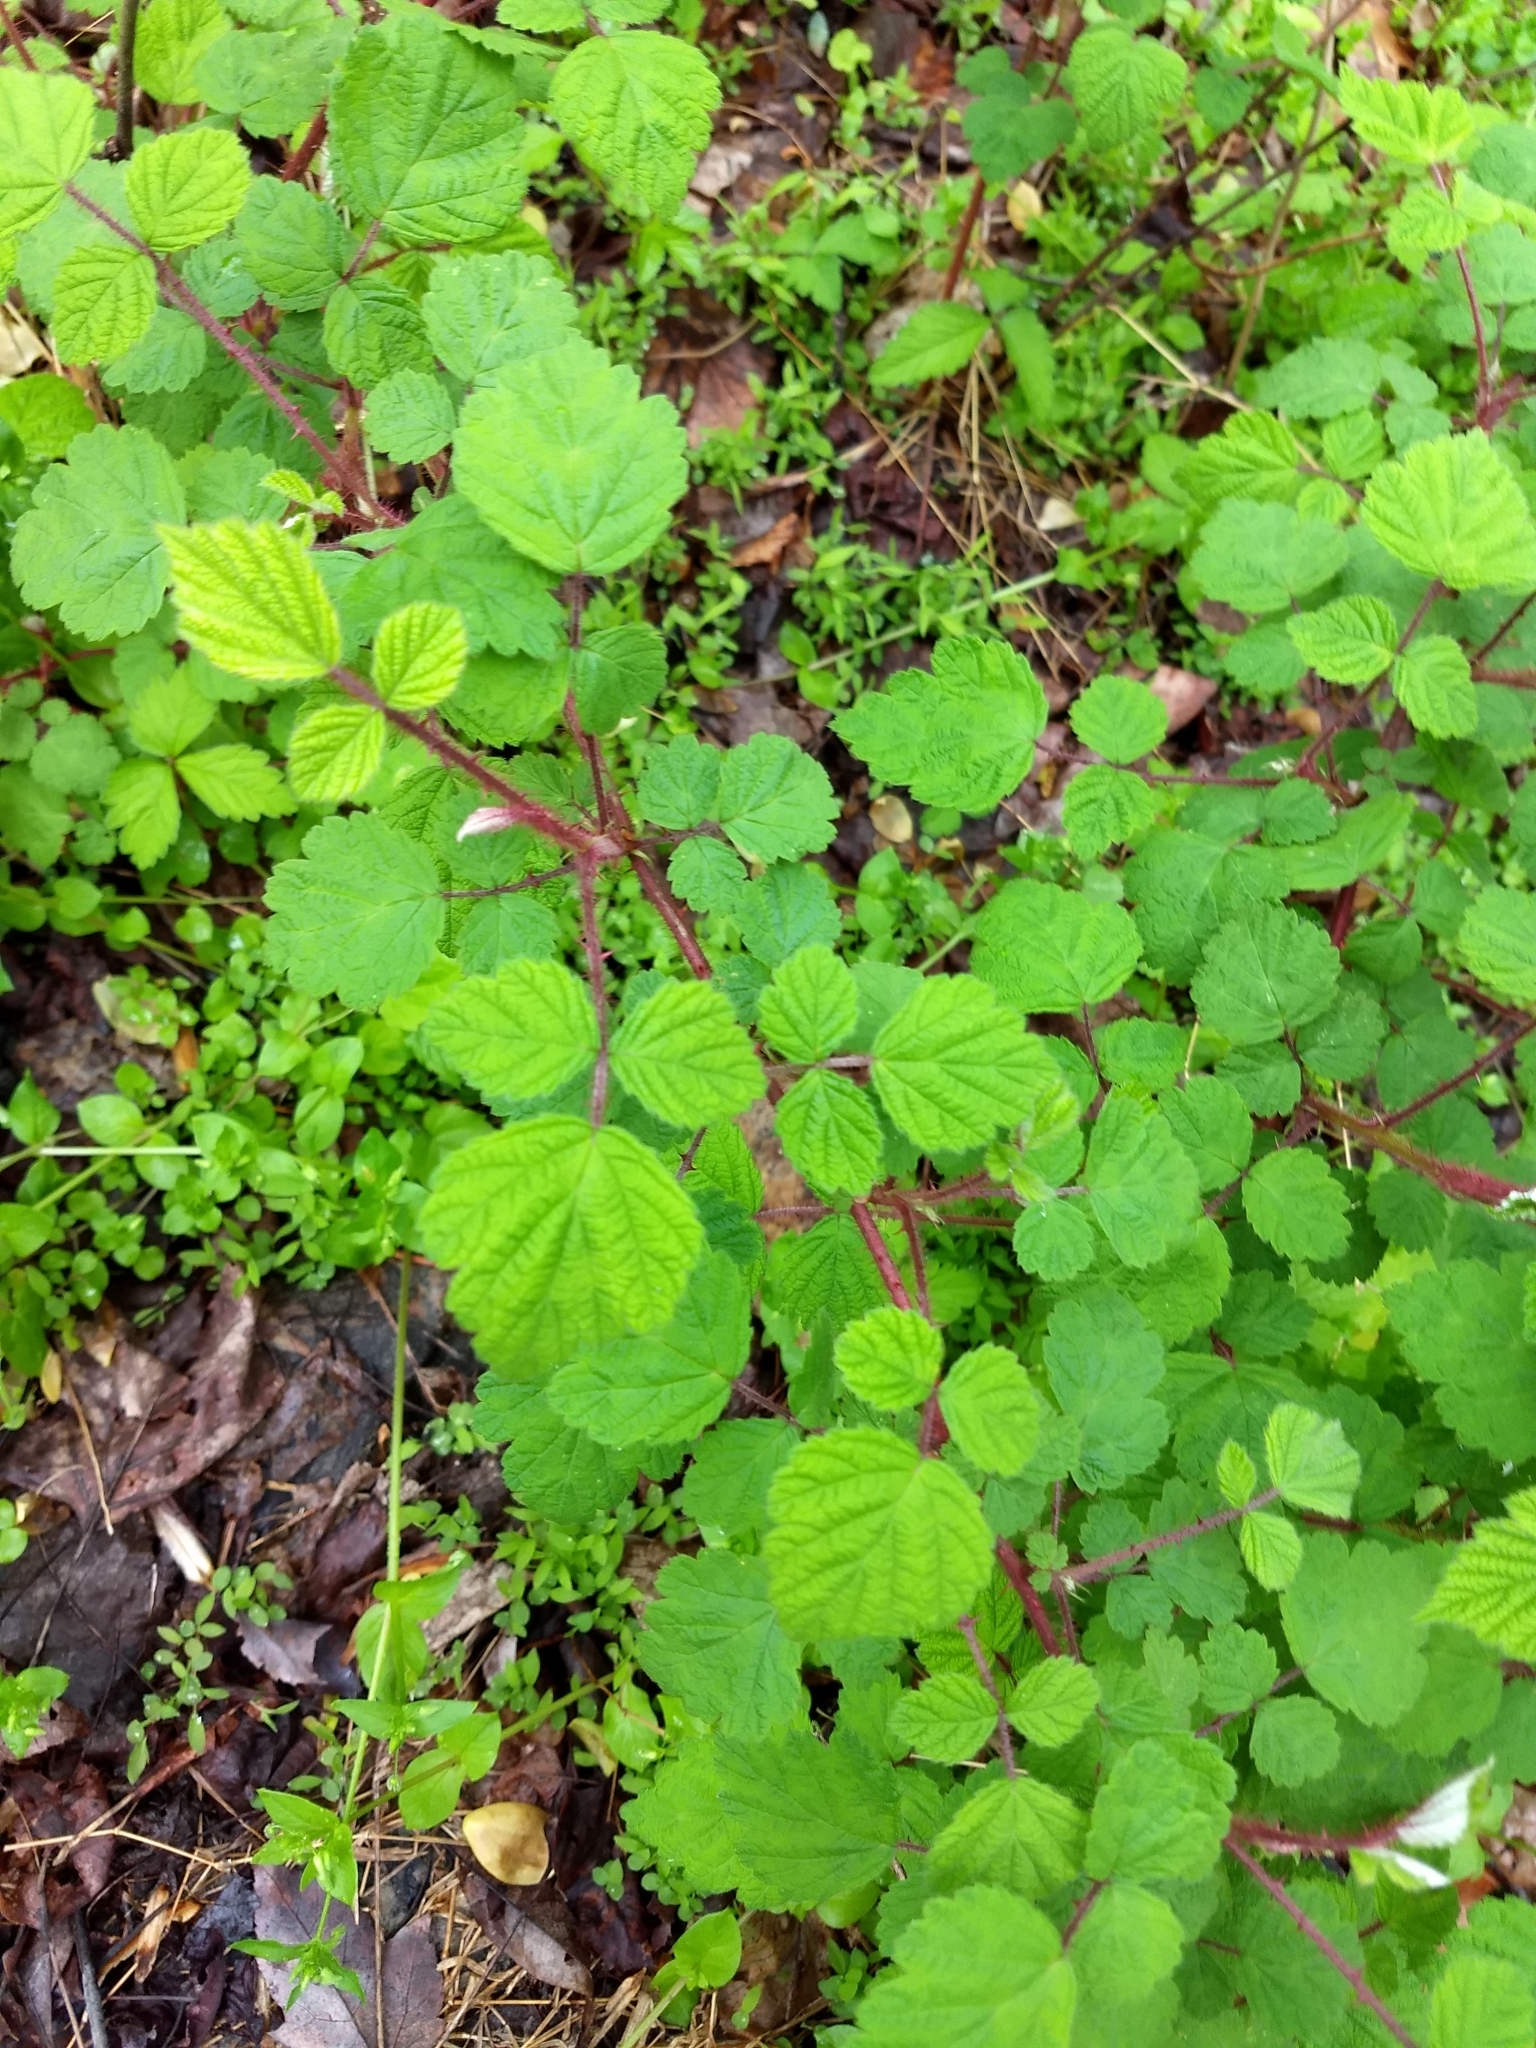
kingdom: Plantae
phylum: Tracheophyta
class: Magnoliopsida
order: Rosales
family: Rosaceae
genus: Rubus
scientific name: Rubus phoenicolasius
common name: Japanese wineberry
